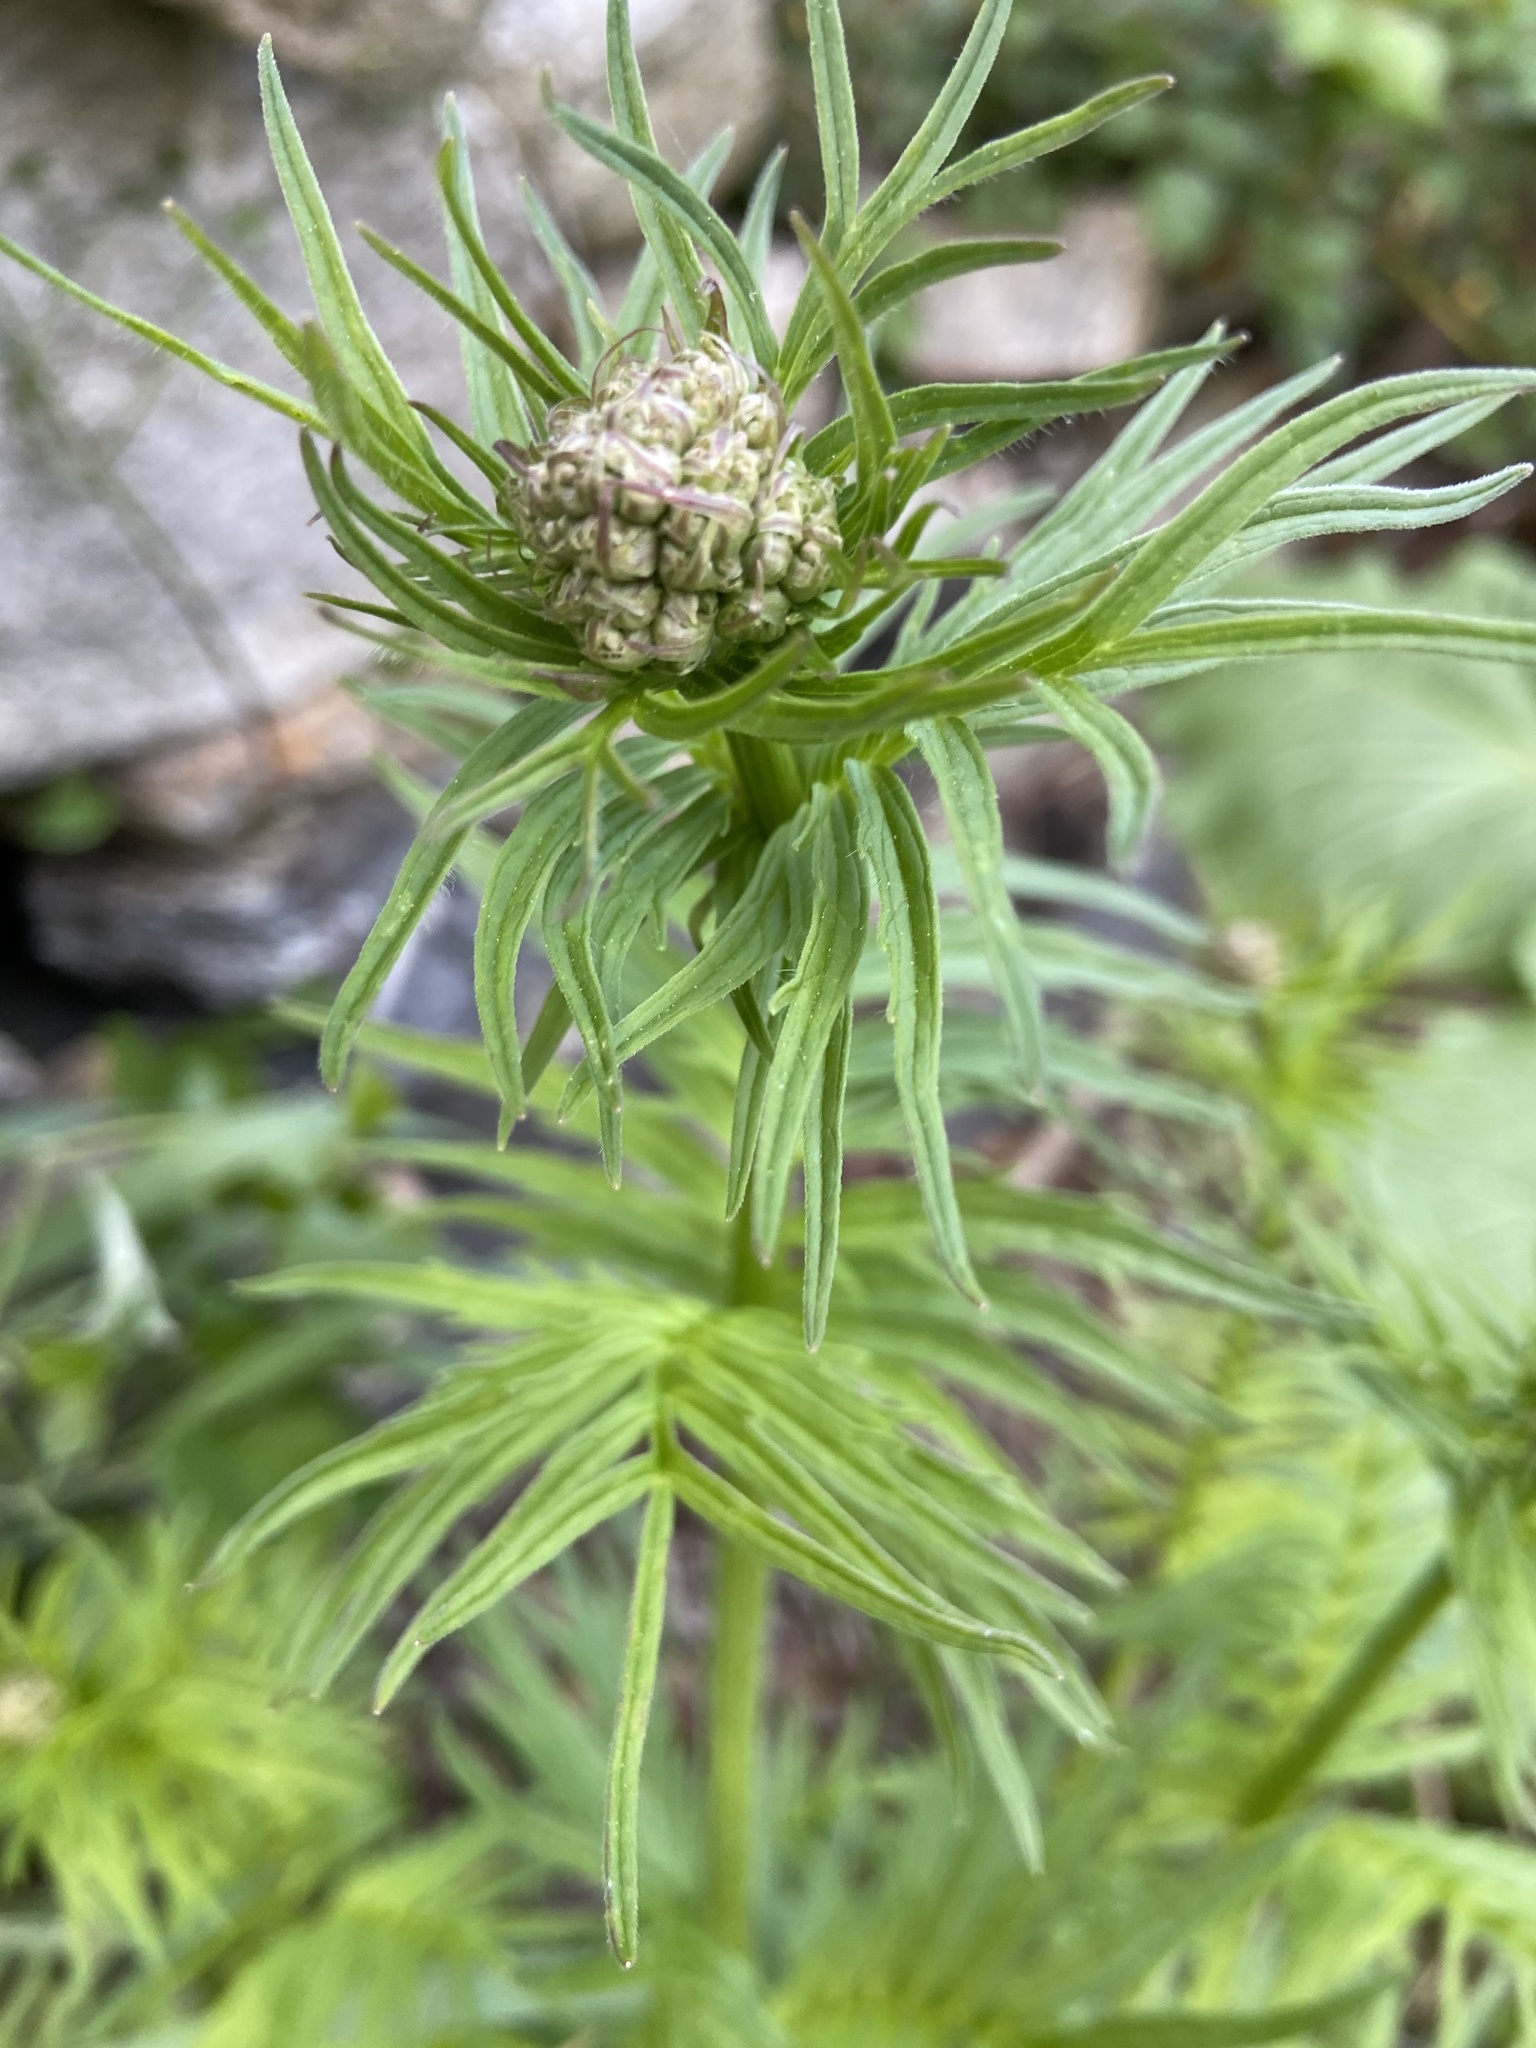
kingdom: Plantae
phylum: Tracheophyta
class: Magnoliopsida
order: Dipsacales
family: Caprifoliaceae
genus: Valeriana
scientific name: Valeriana officinalis
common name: Common valerian
